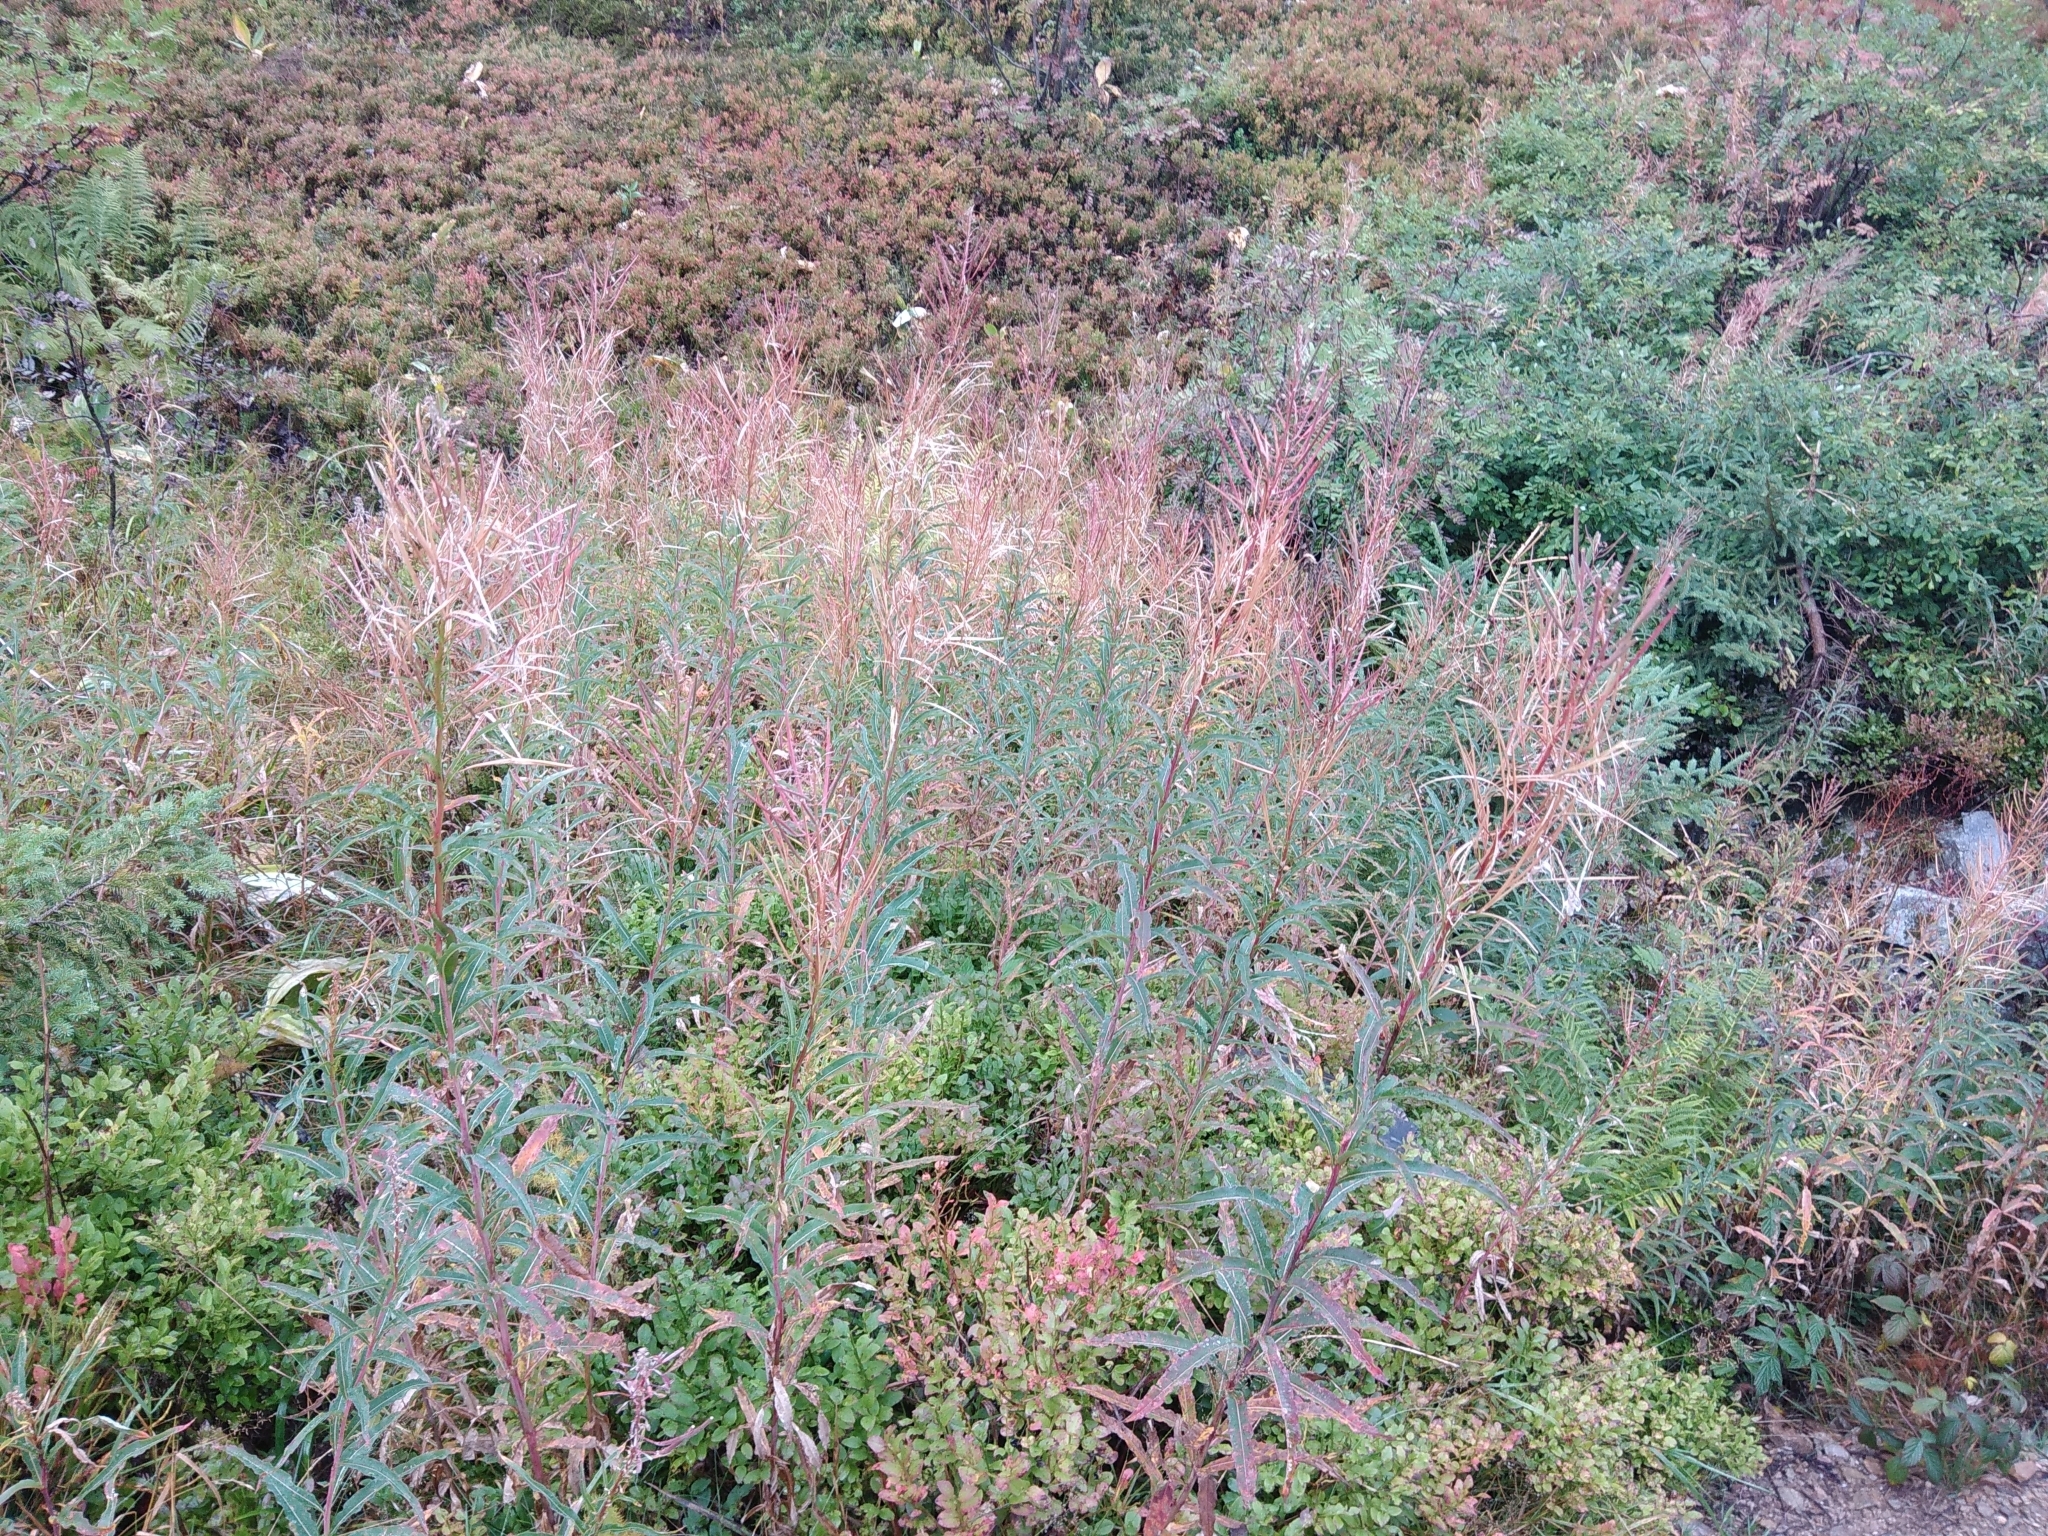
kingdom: Plantae
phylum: Tracheophyta
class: Magnoliopsida
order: Myrtales
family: Onagraceae
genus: Chamaenerion
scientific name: Chamaenerion angustifolium
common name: Fireweed
